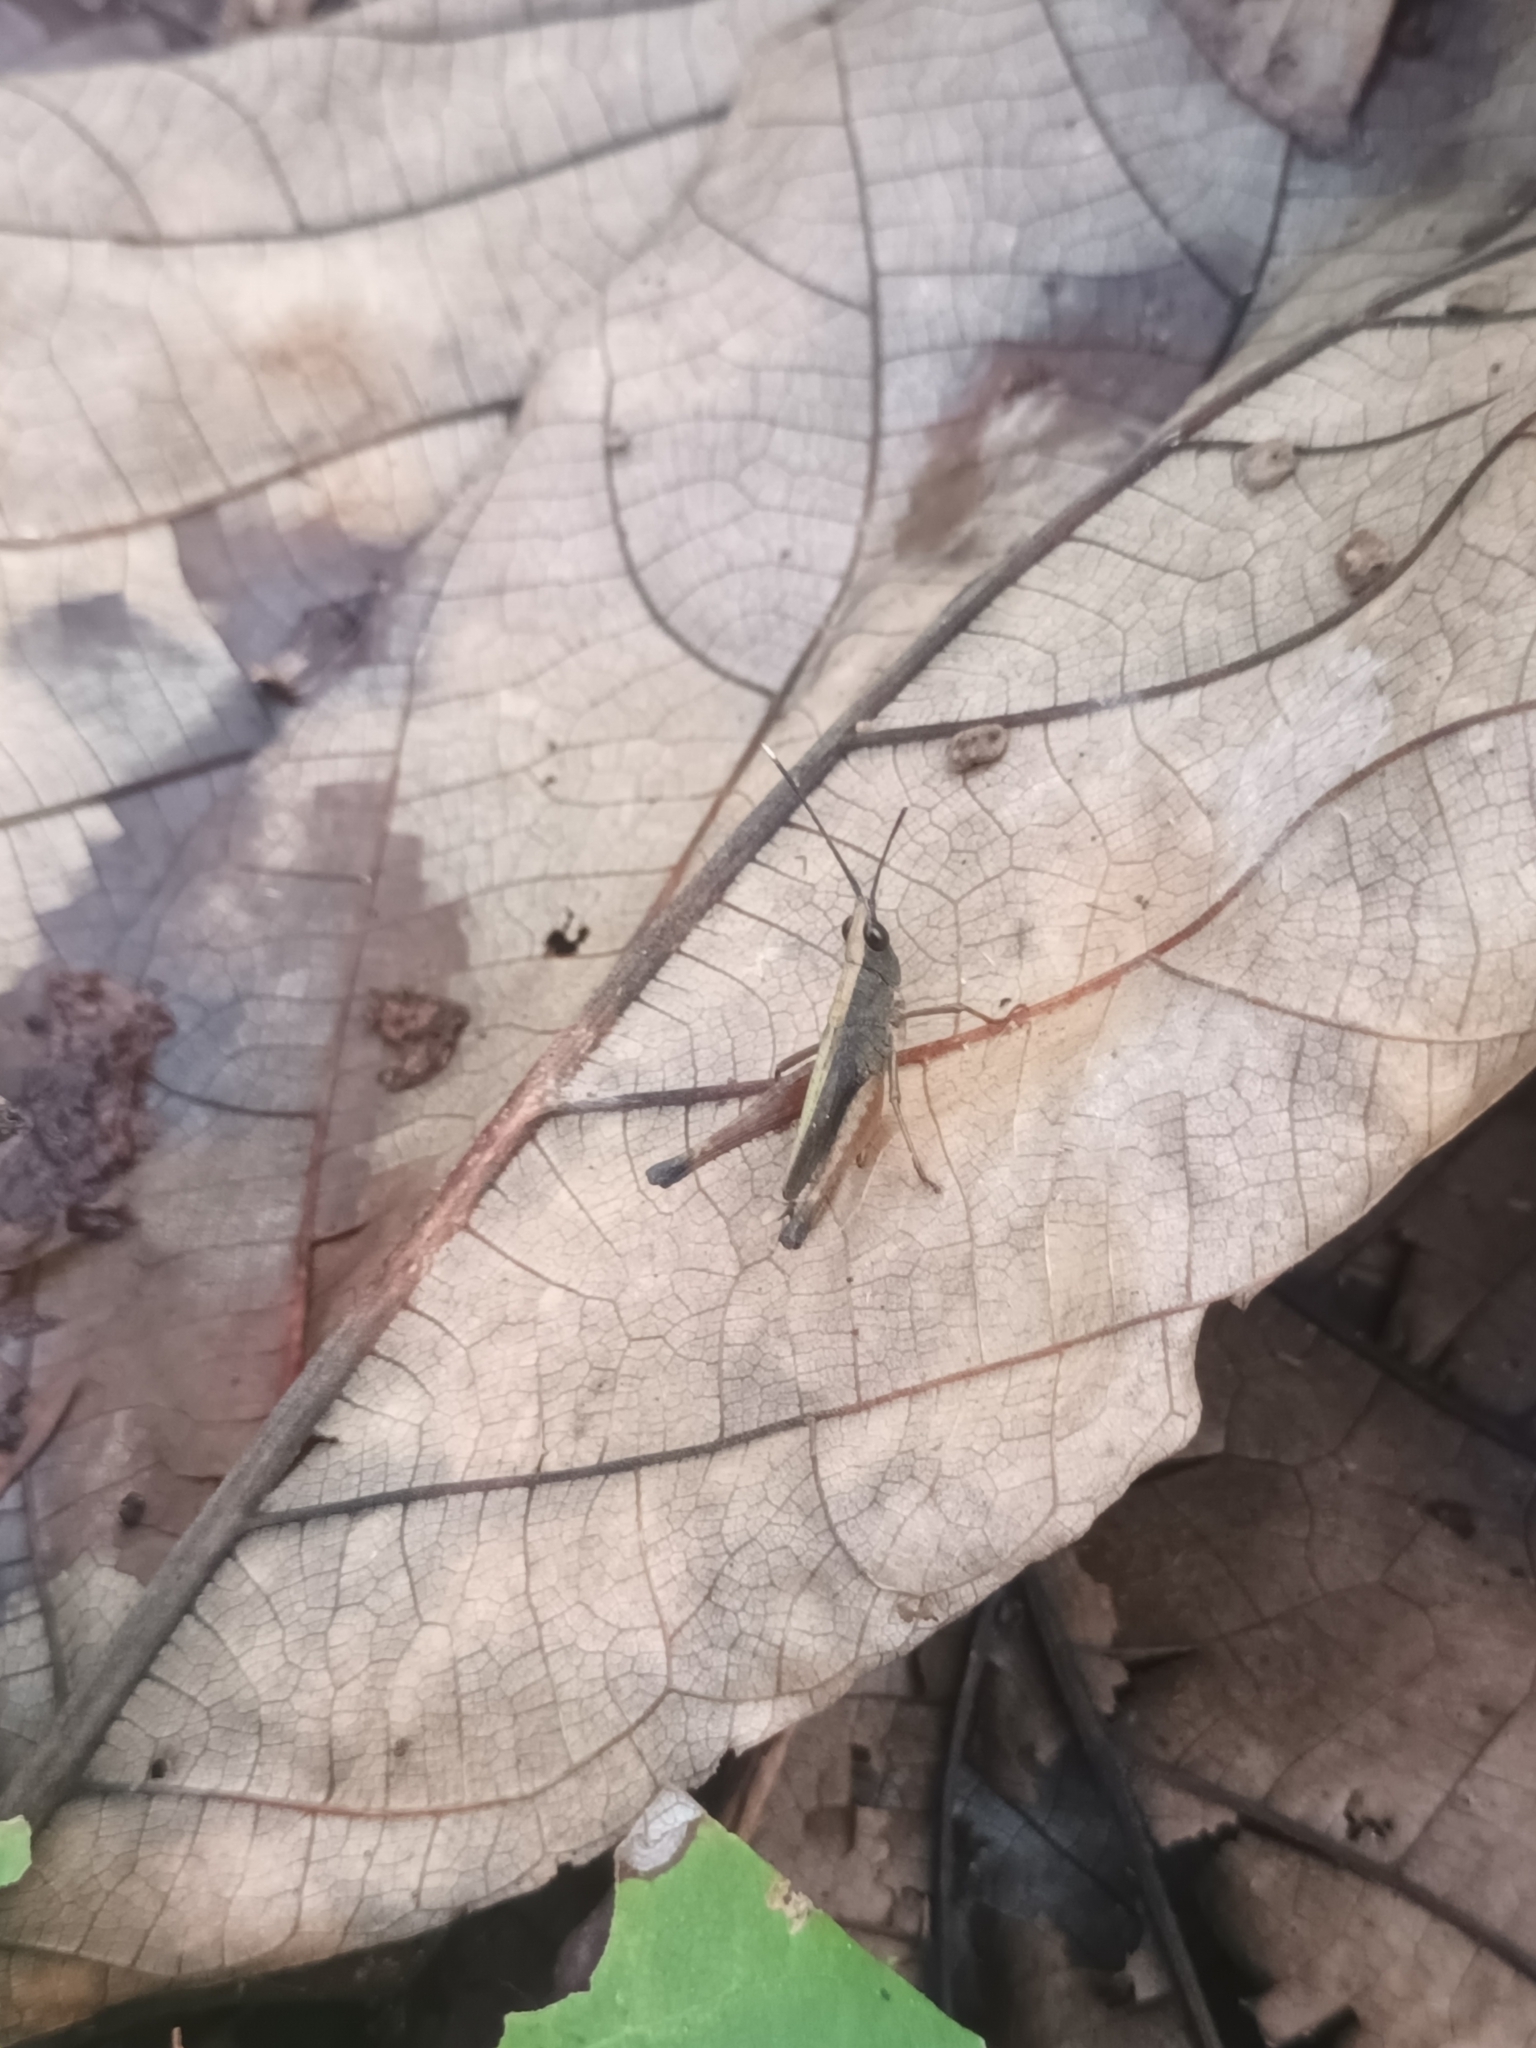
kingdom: Animalia
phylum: Arthropoda
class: Insecta
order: Orthoptera
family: Acrididae
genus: Phlaeoba
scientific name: Phlaeoba antennata
